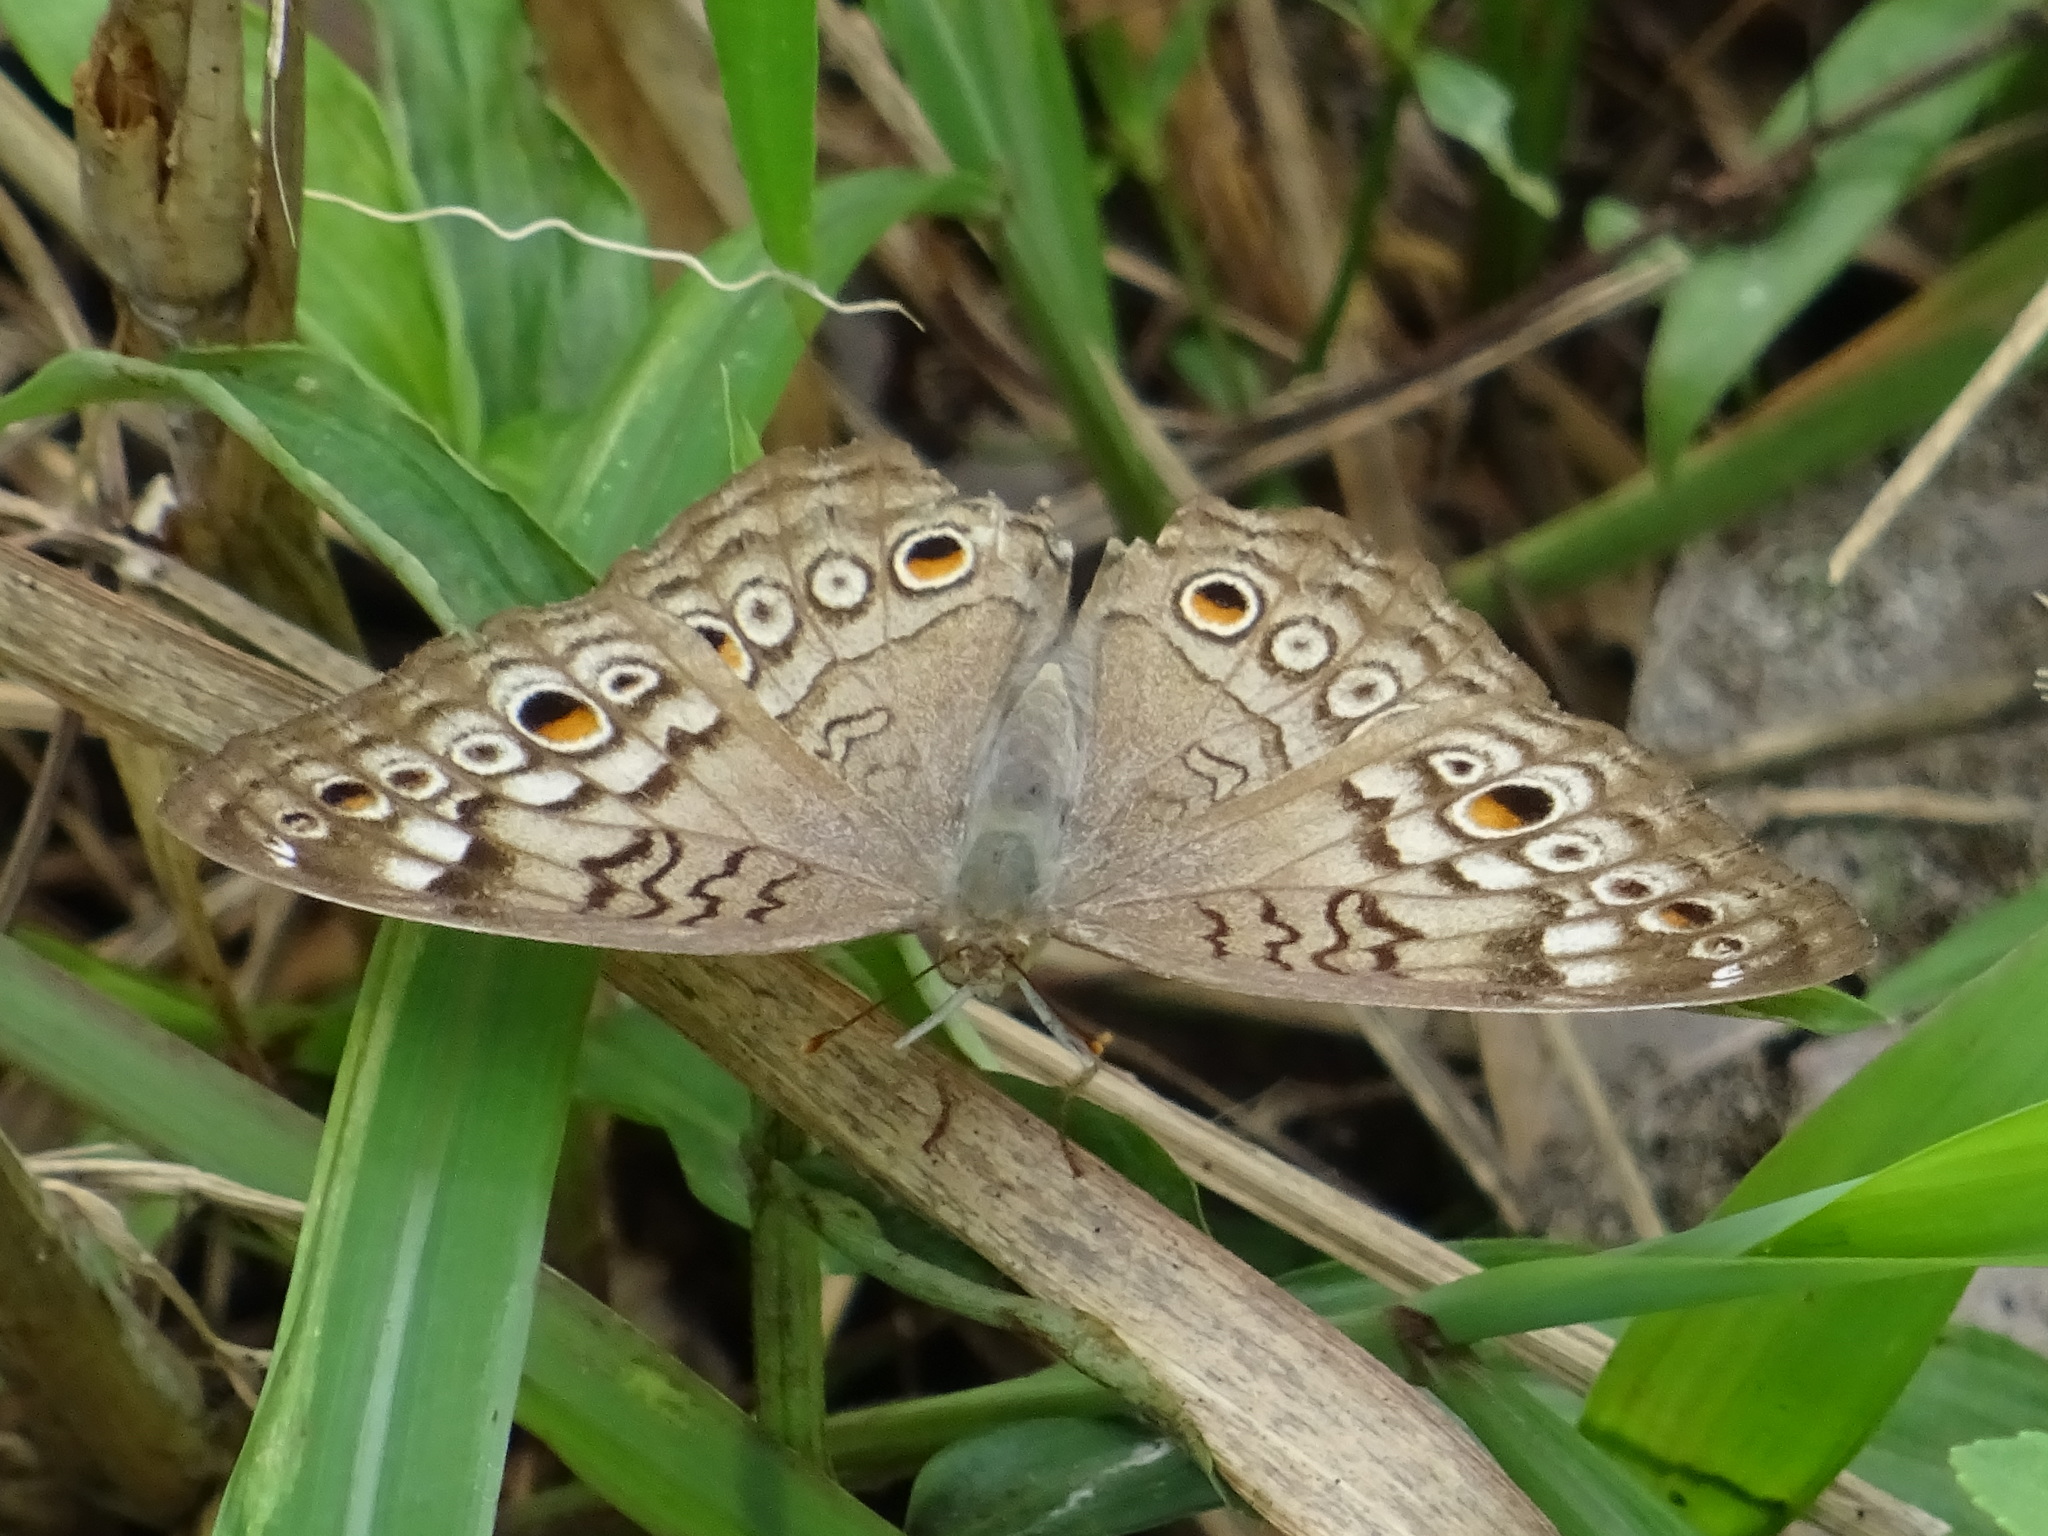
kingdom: Animalia
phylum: Arthropoda
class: Insecta
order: Lepidoptera
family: Nymphalidae
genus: Junonia
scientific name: Junonia atlites
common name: Grey pansy
